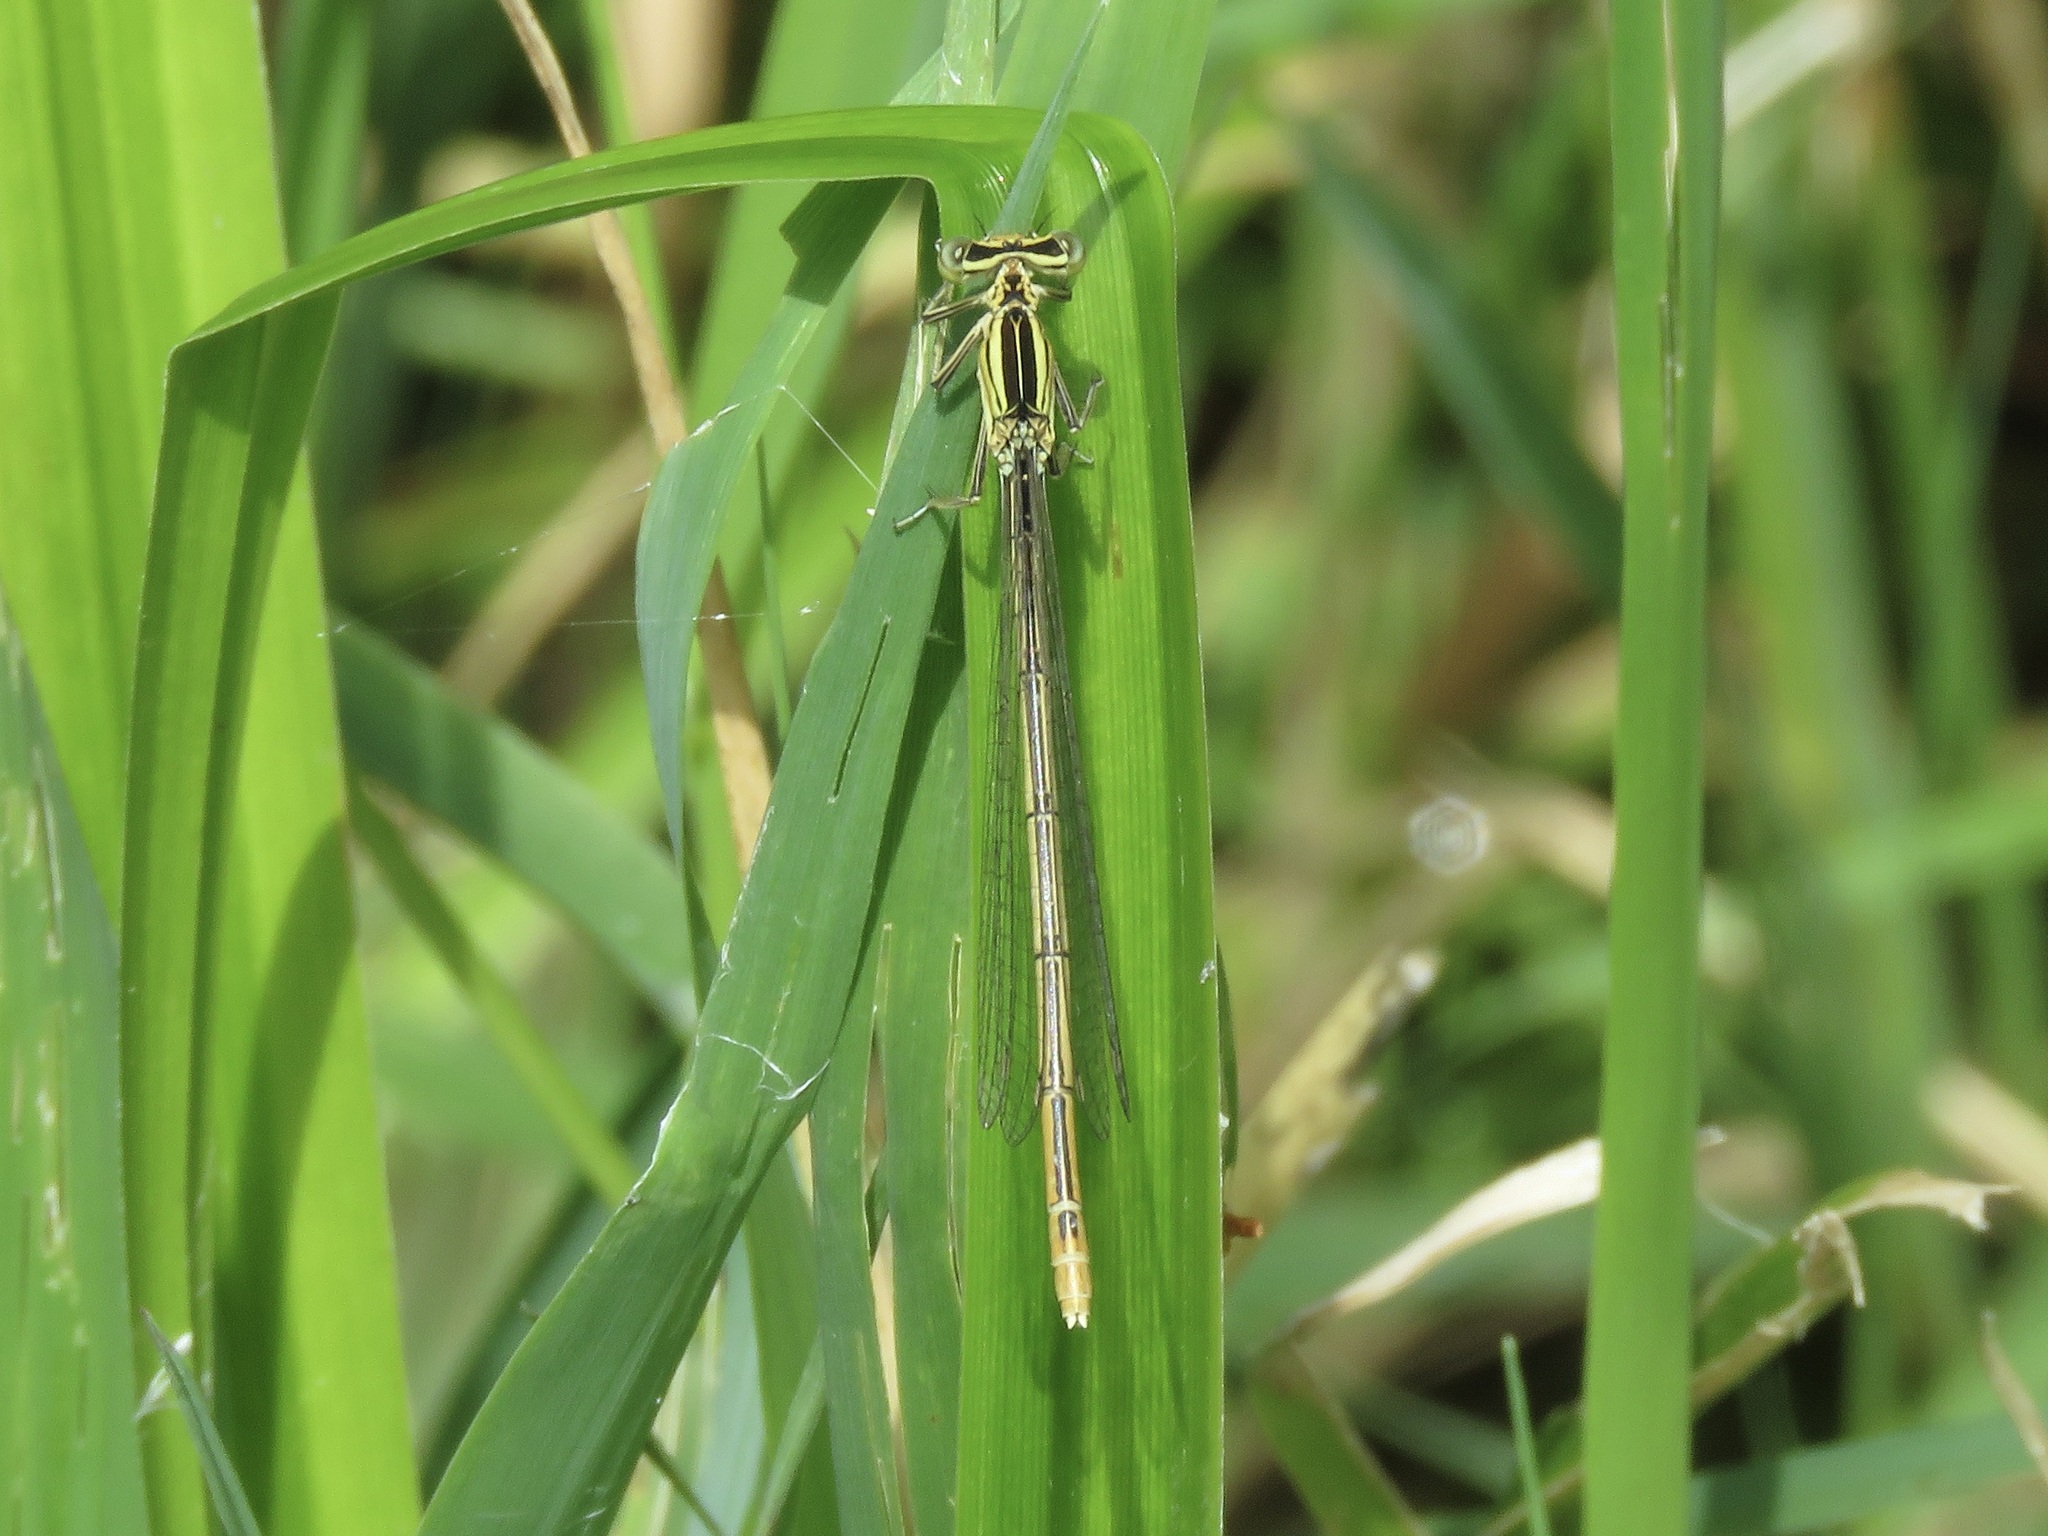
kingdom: Animalia
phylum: Arthropoda
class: Insecta
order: Odonata
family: Platycnemididae
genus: Platycnemis
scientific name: Platycnemis pennipes
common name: White-legged damselfly
